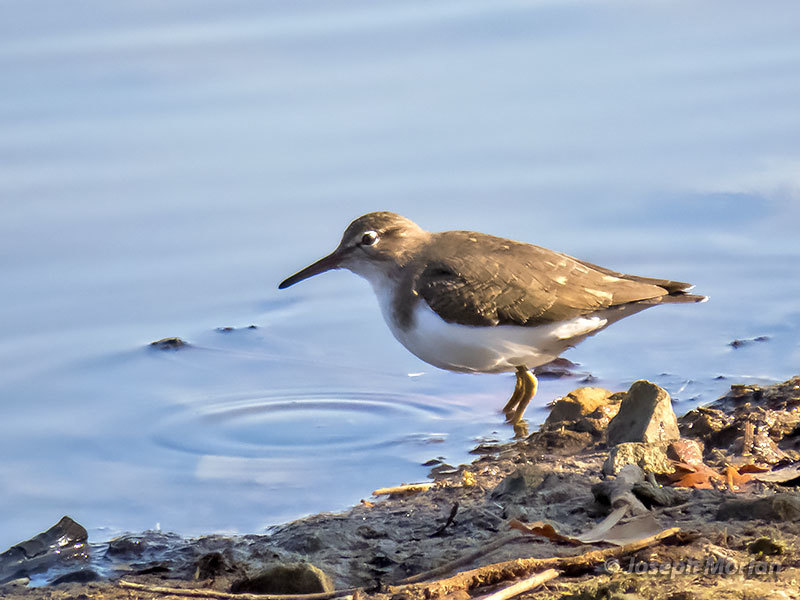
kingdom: Animalia
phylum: Chordata
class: Aves
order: Charadriiformes
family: Scolopacidae
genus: Actitis
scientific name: Actitis macularius
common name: Spotted sandpiper
